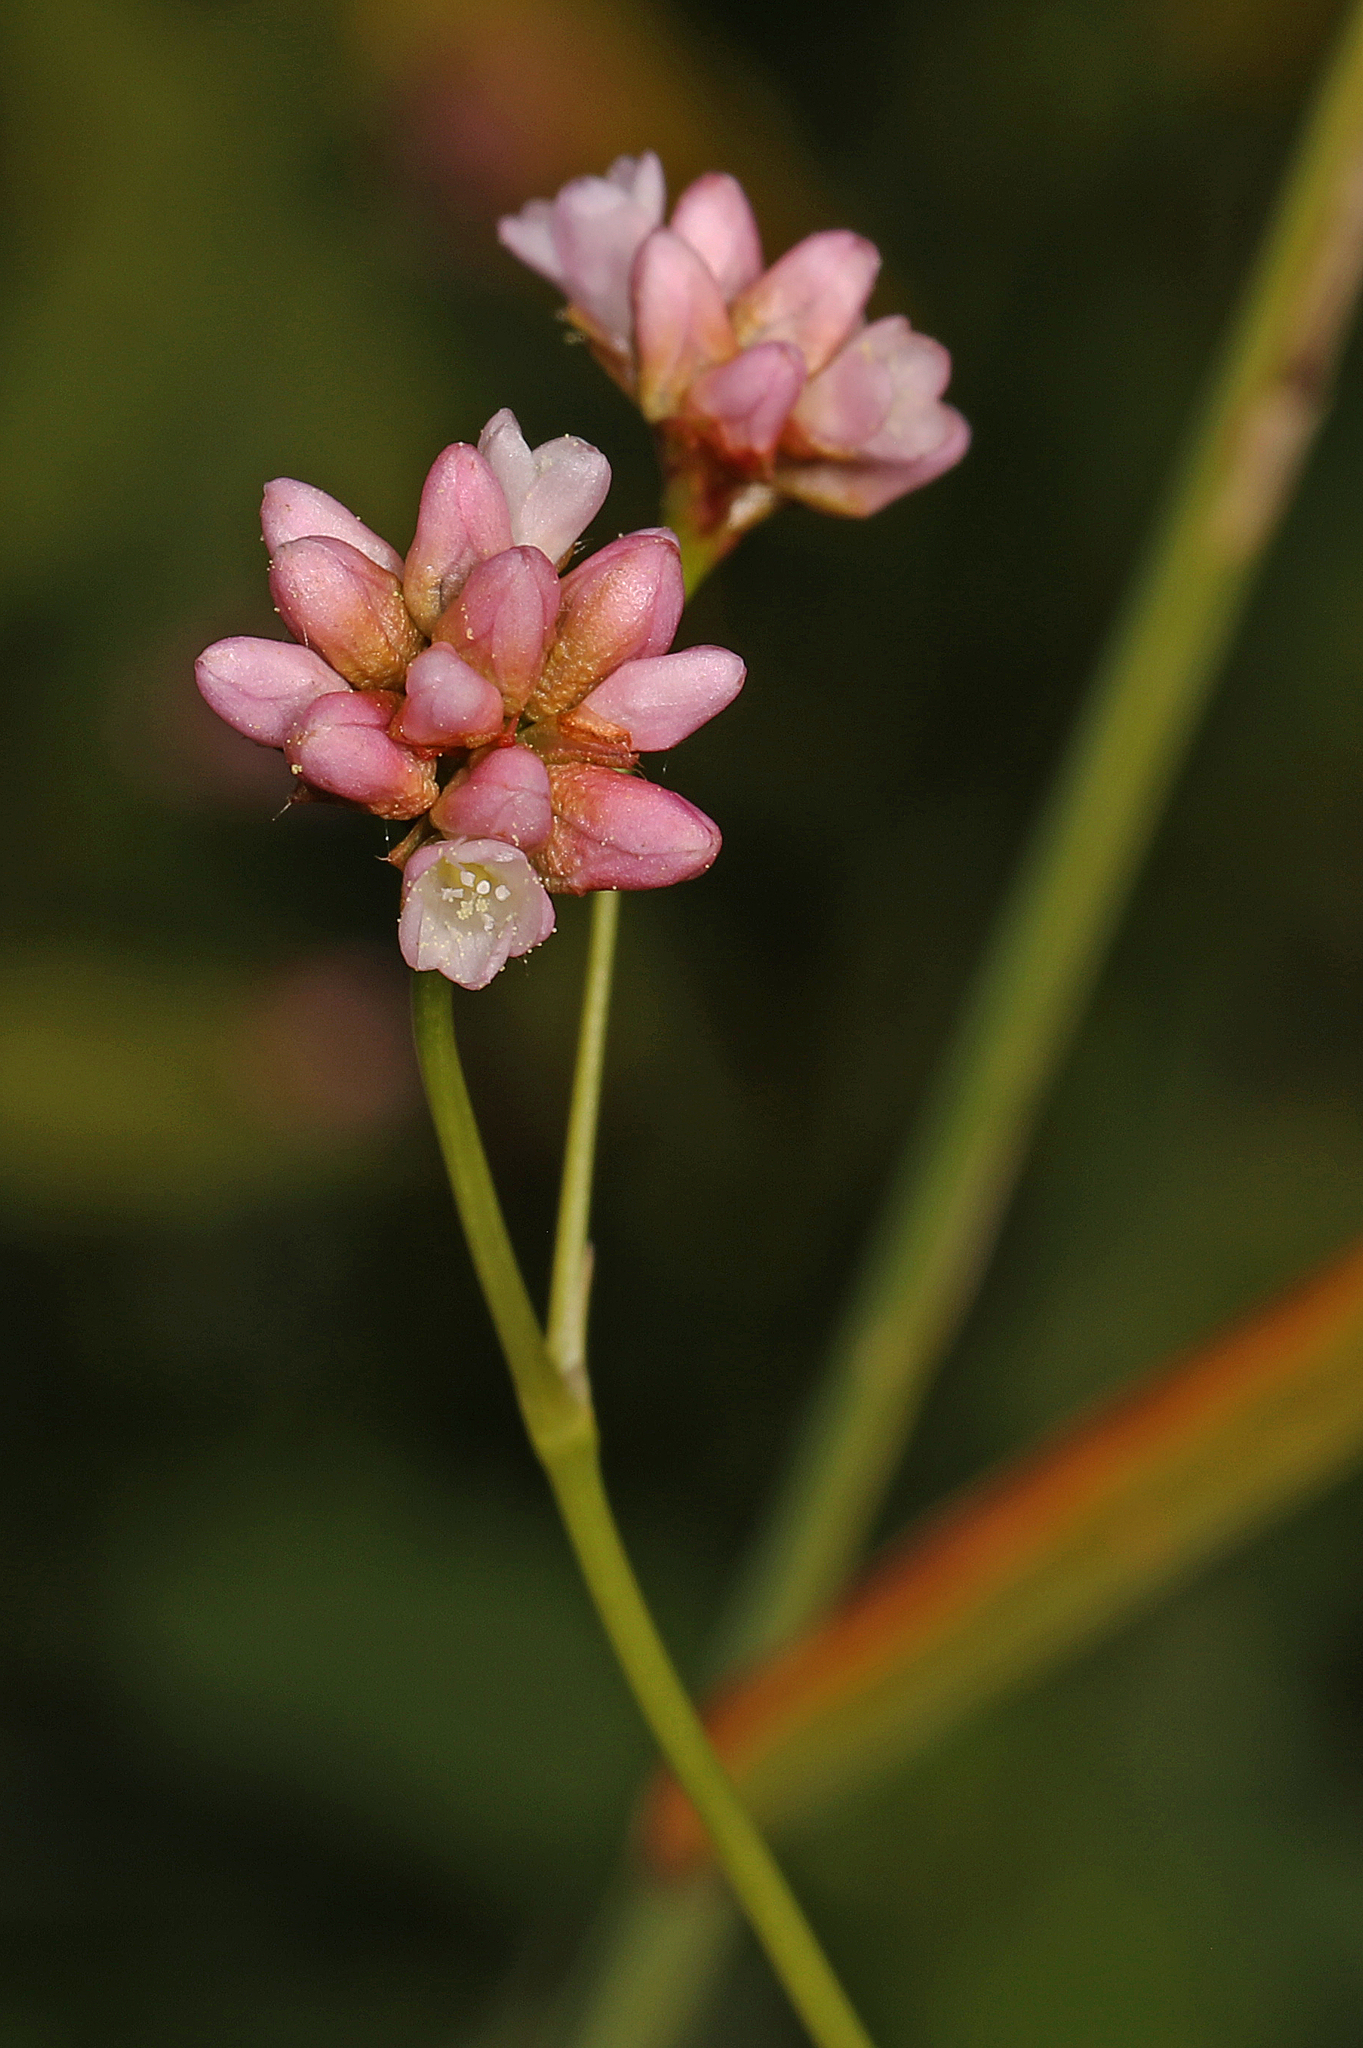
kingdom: Plantae
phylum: Tracheophyta
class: Magnoliopsida
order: Caryophyllales
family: Polygonaceae
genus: Persicaria
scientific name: Persicaria sagittata
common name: American tearthumb
